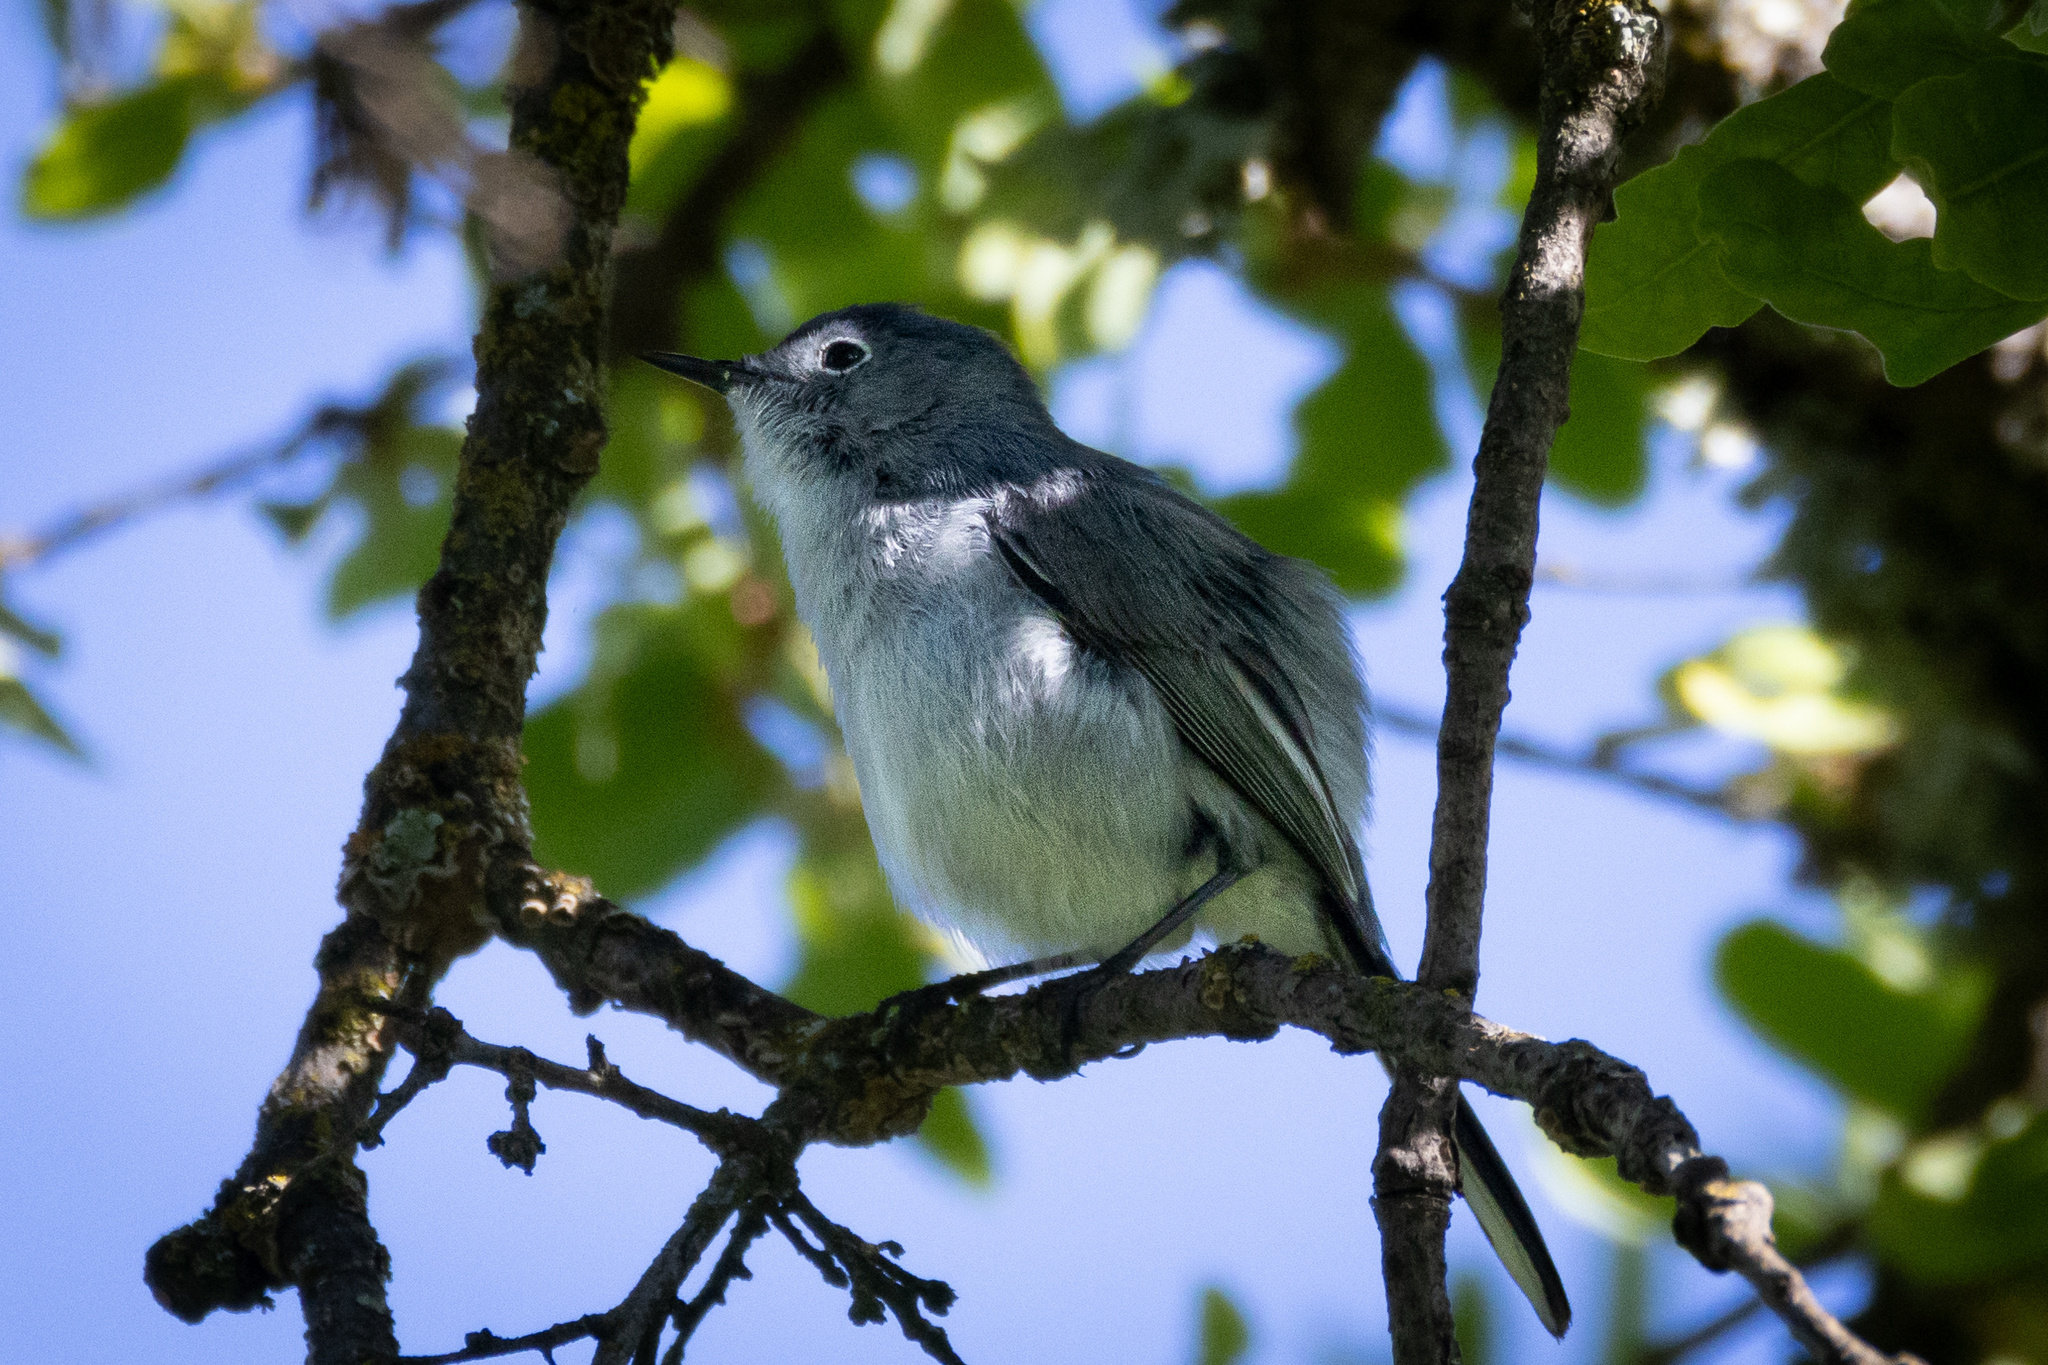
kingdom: Animalia
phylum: Chordata
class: Aves
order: Passeriformes
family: Polioptilidae
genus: Polioptila
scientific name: Polioptila caerulea
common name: Blue-gray gnatcatcher
